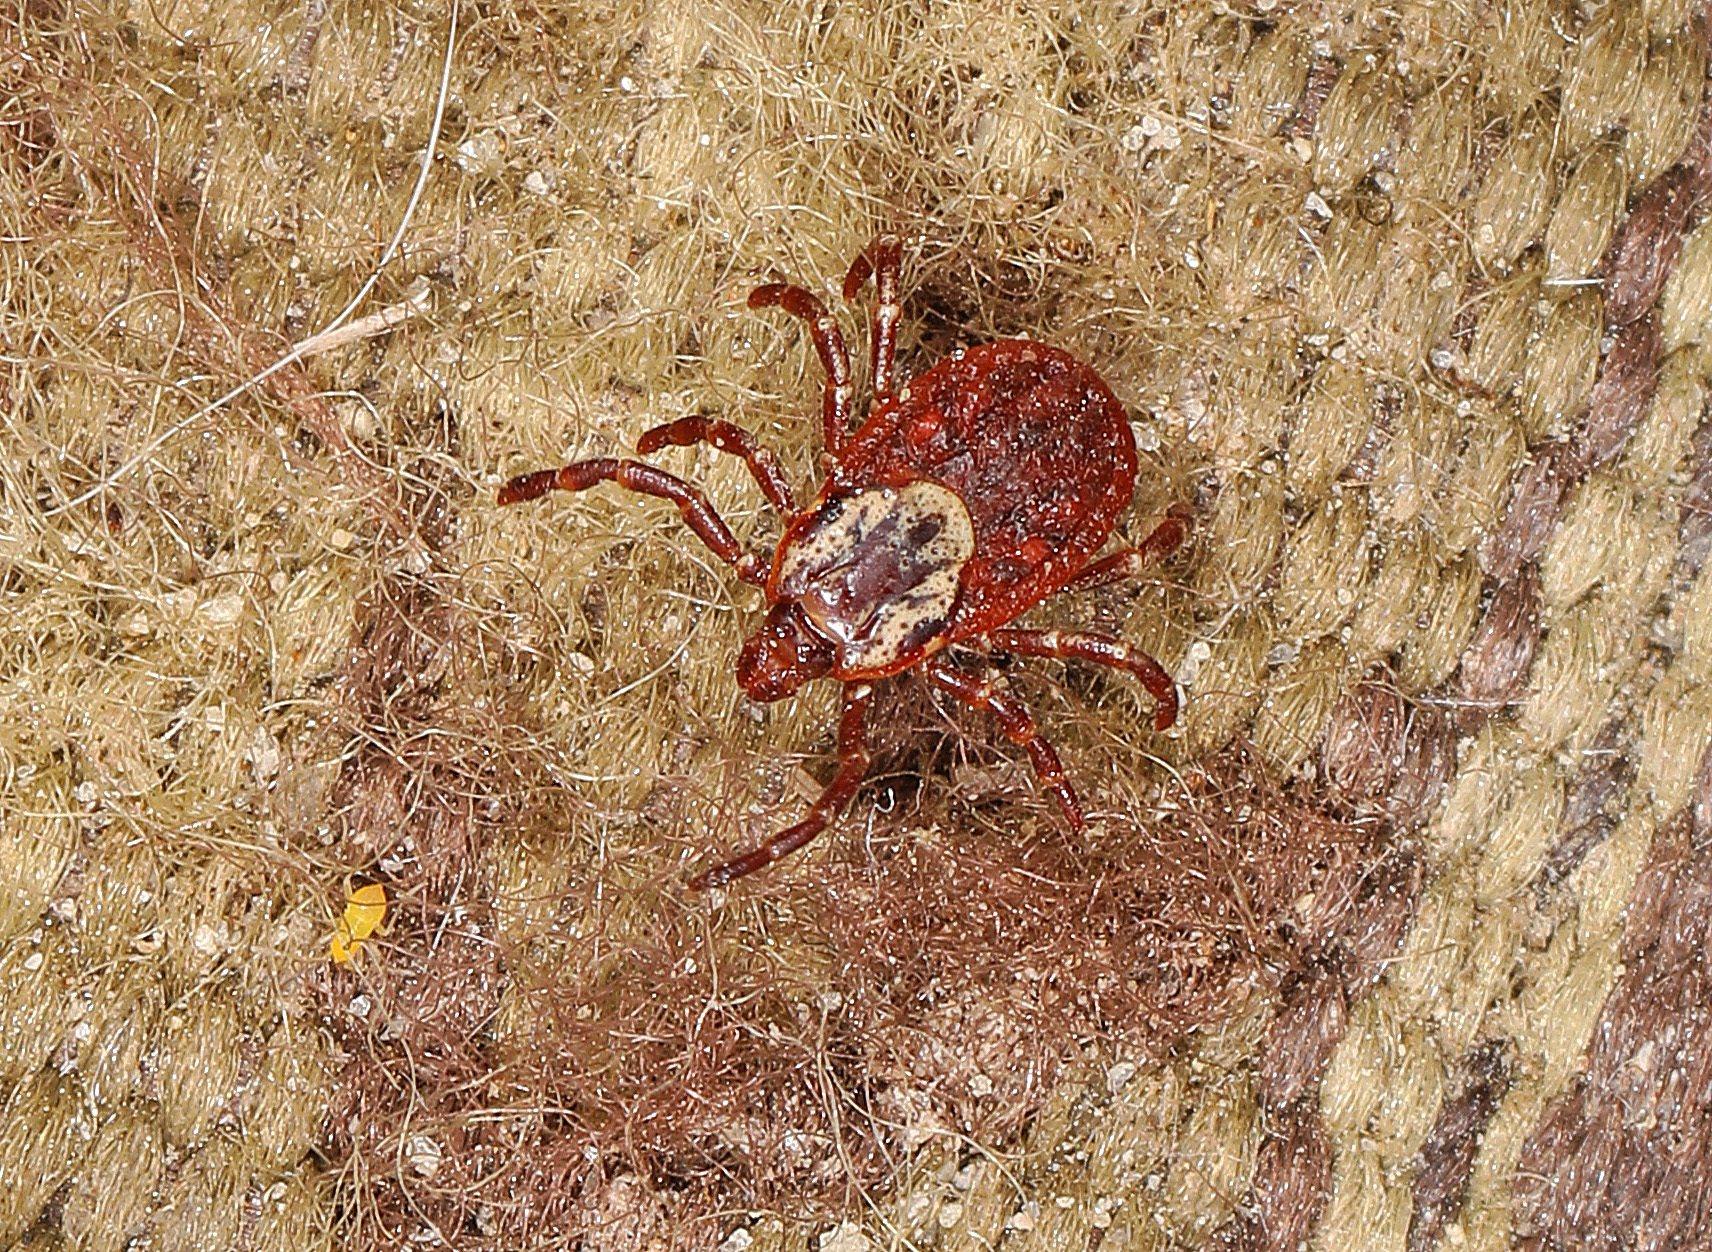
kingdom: Animalia
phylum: Arthropoda
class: Arachnida
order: Ixodida
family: Ixodidae
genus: Dermacentor
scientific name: Dermacentor variabilis
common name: American dog tick
